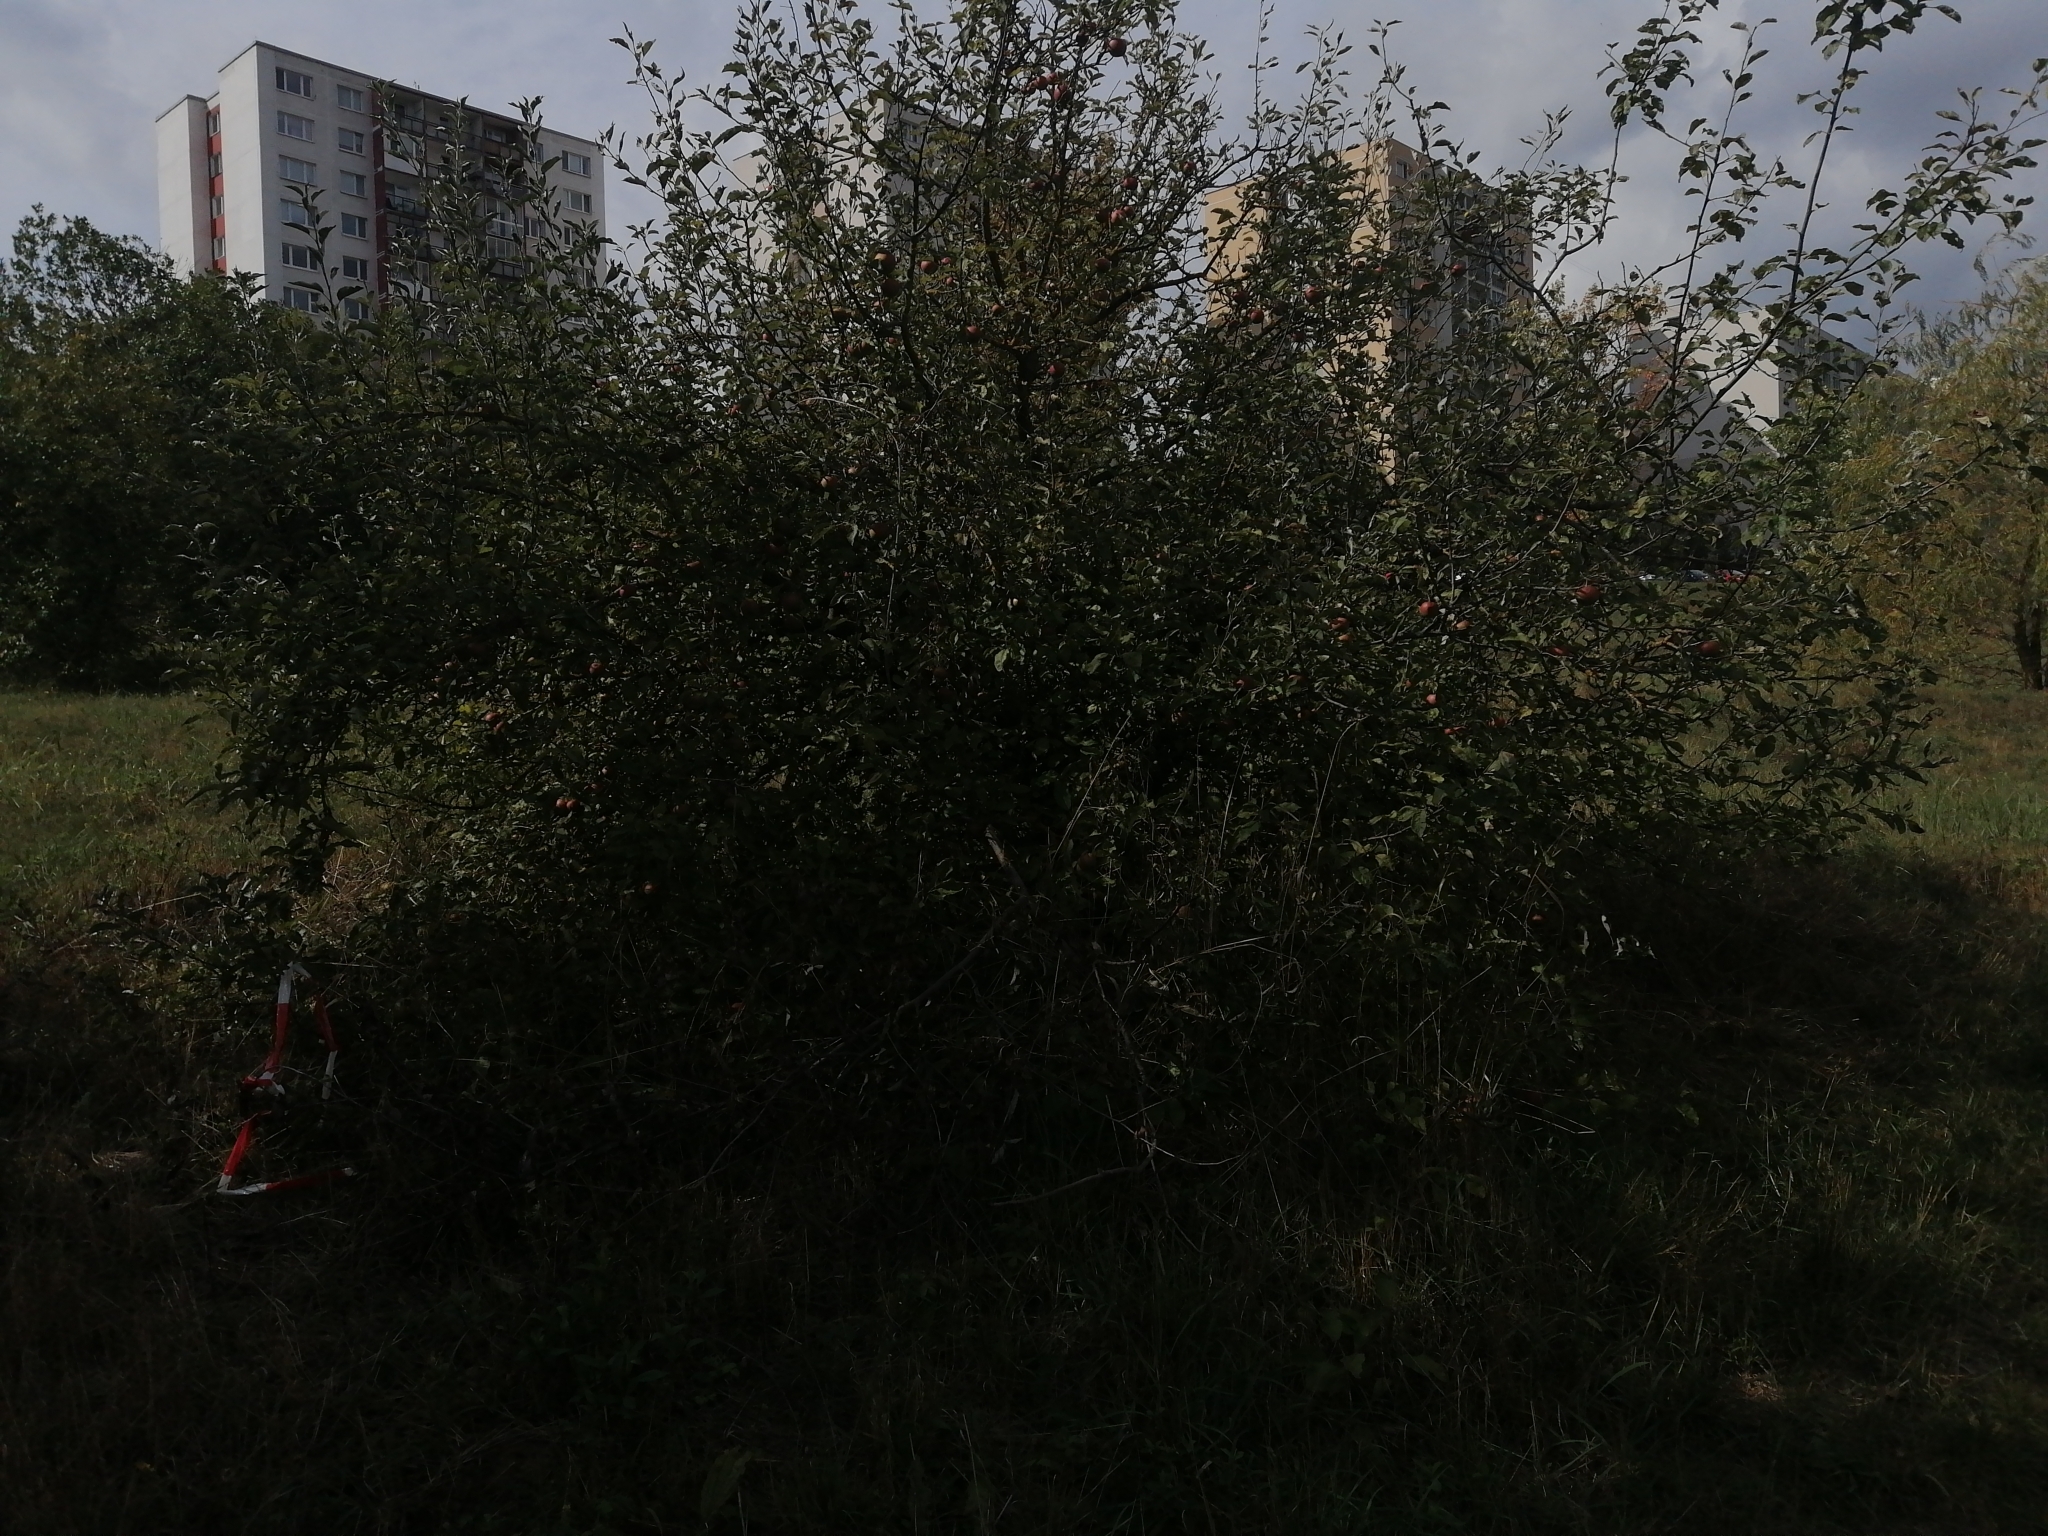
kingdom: Plantae
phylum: Tracheophyta
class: Magnoliopsida
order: Rosales
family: Rosaceae
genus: Malus
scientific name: Malus domestica
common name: Apple
